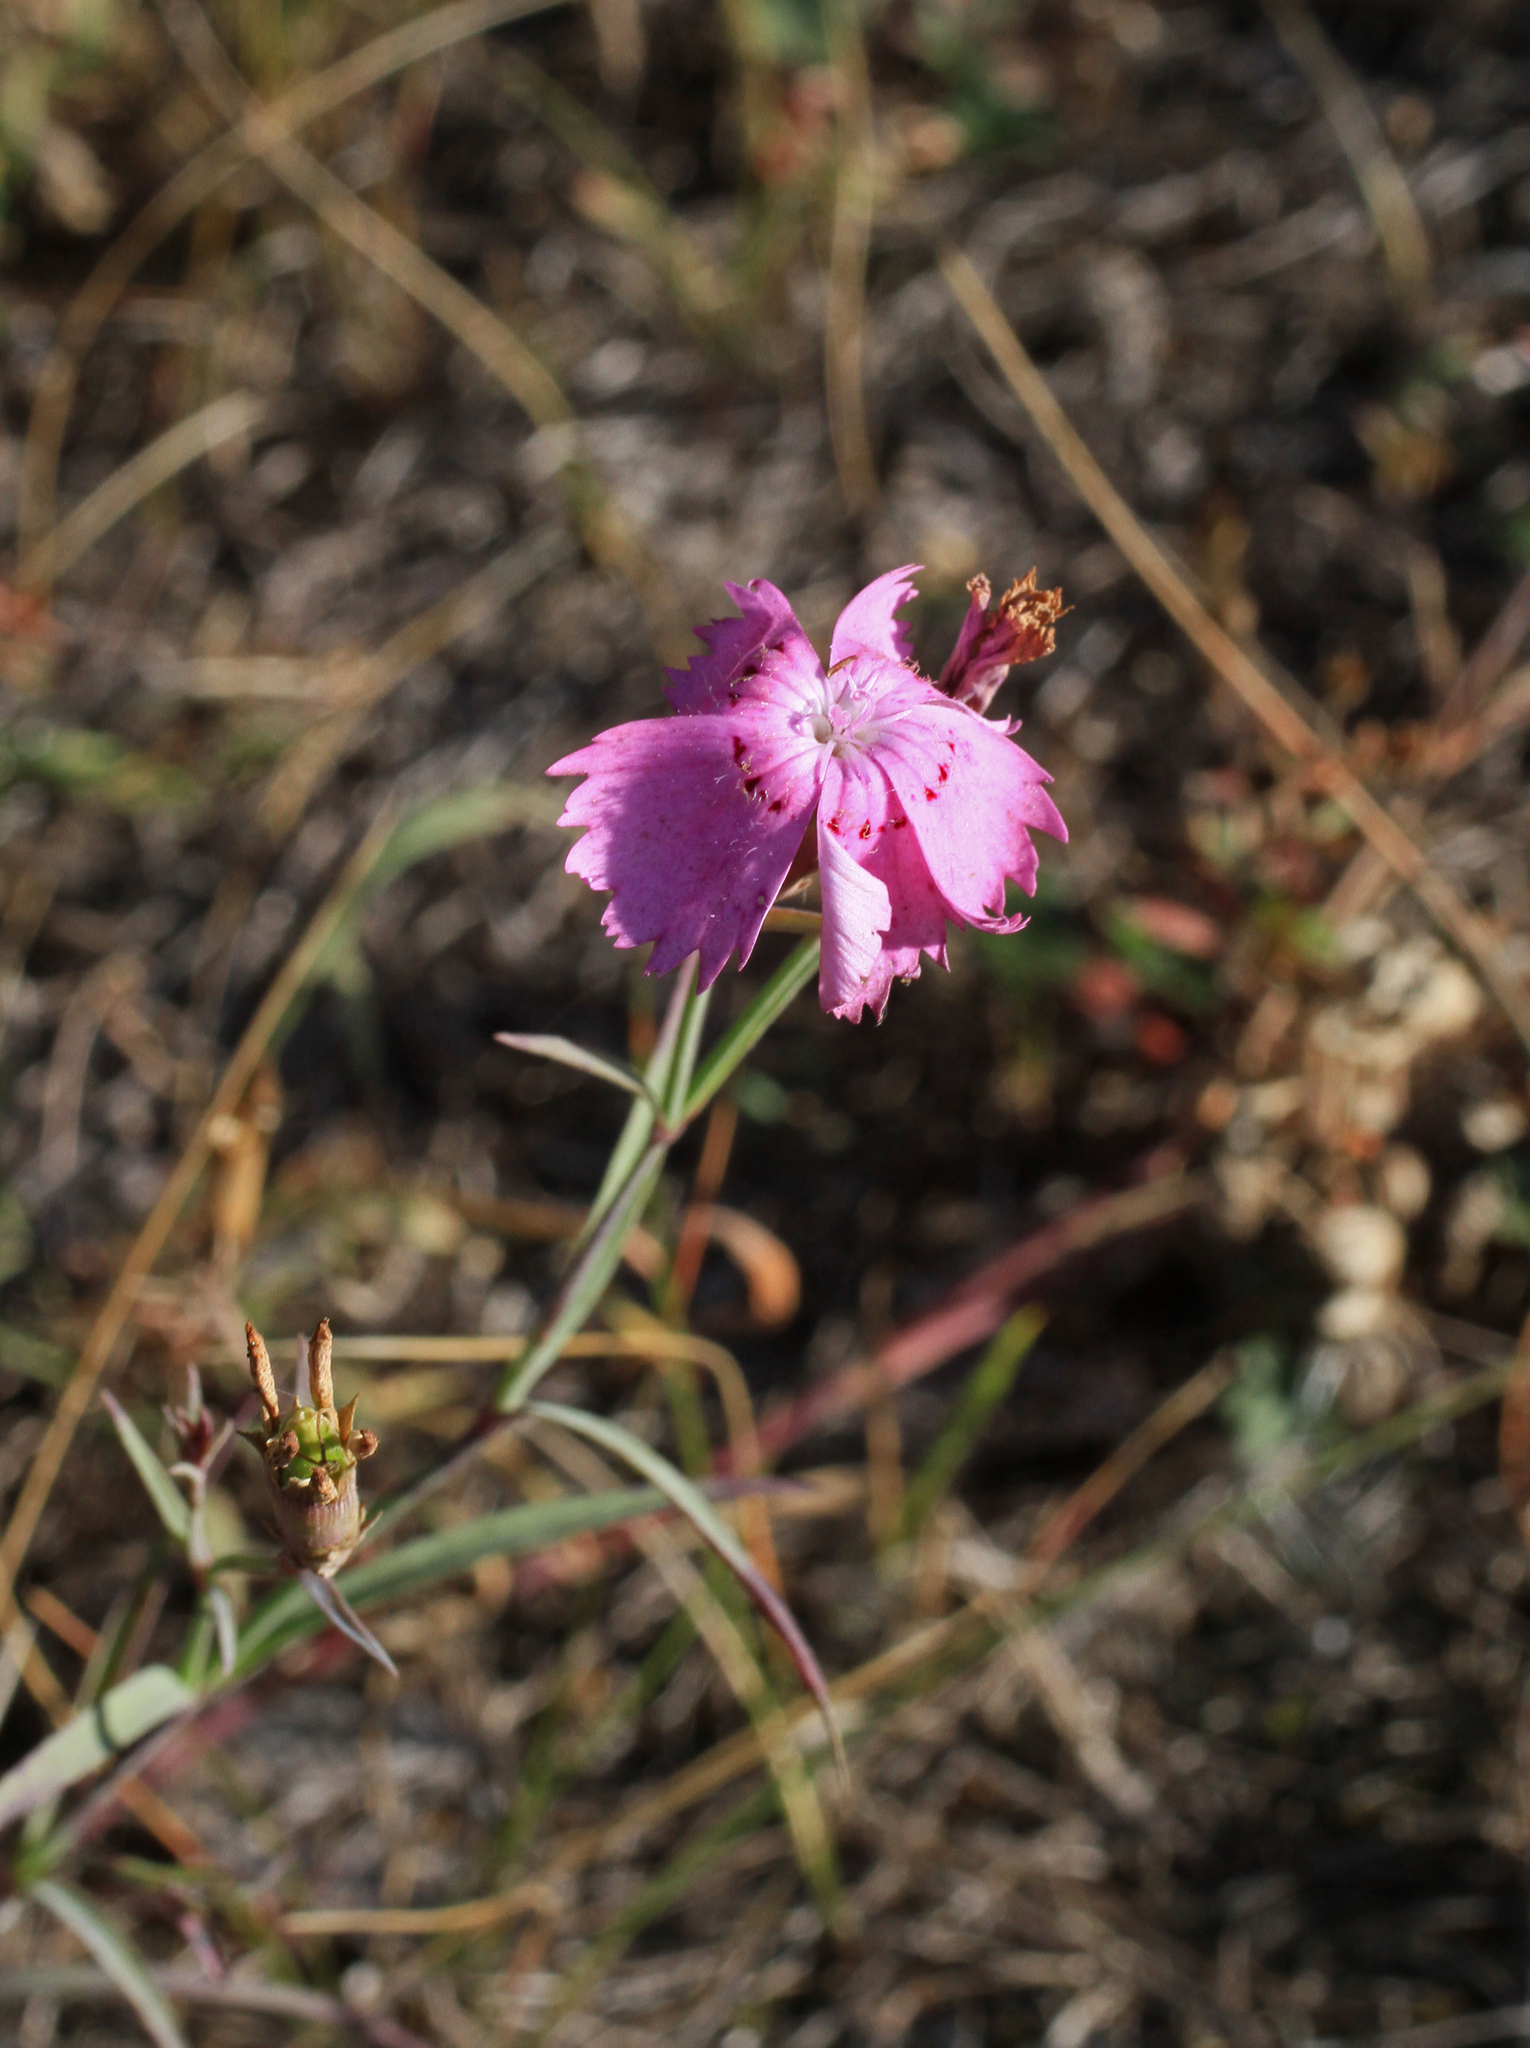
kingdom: Plantae
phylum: Tracheophyta
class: Magnoliopsida
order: Caryophyllales
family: Caryophyllaceae
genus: Dianthus
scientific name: Dianthus chinensis
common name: Rainbow pink
